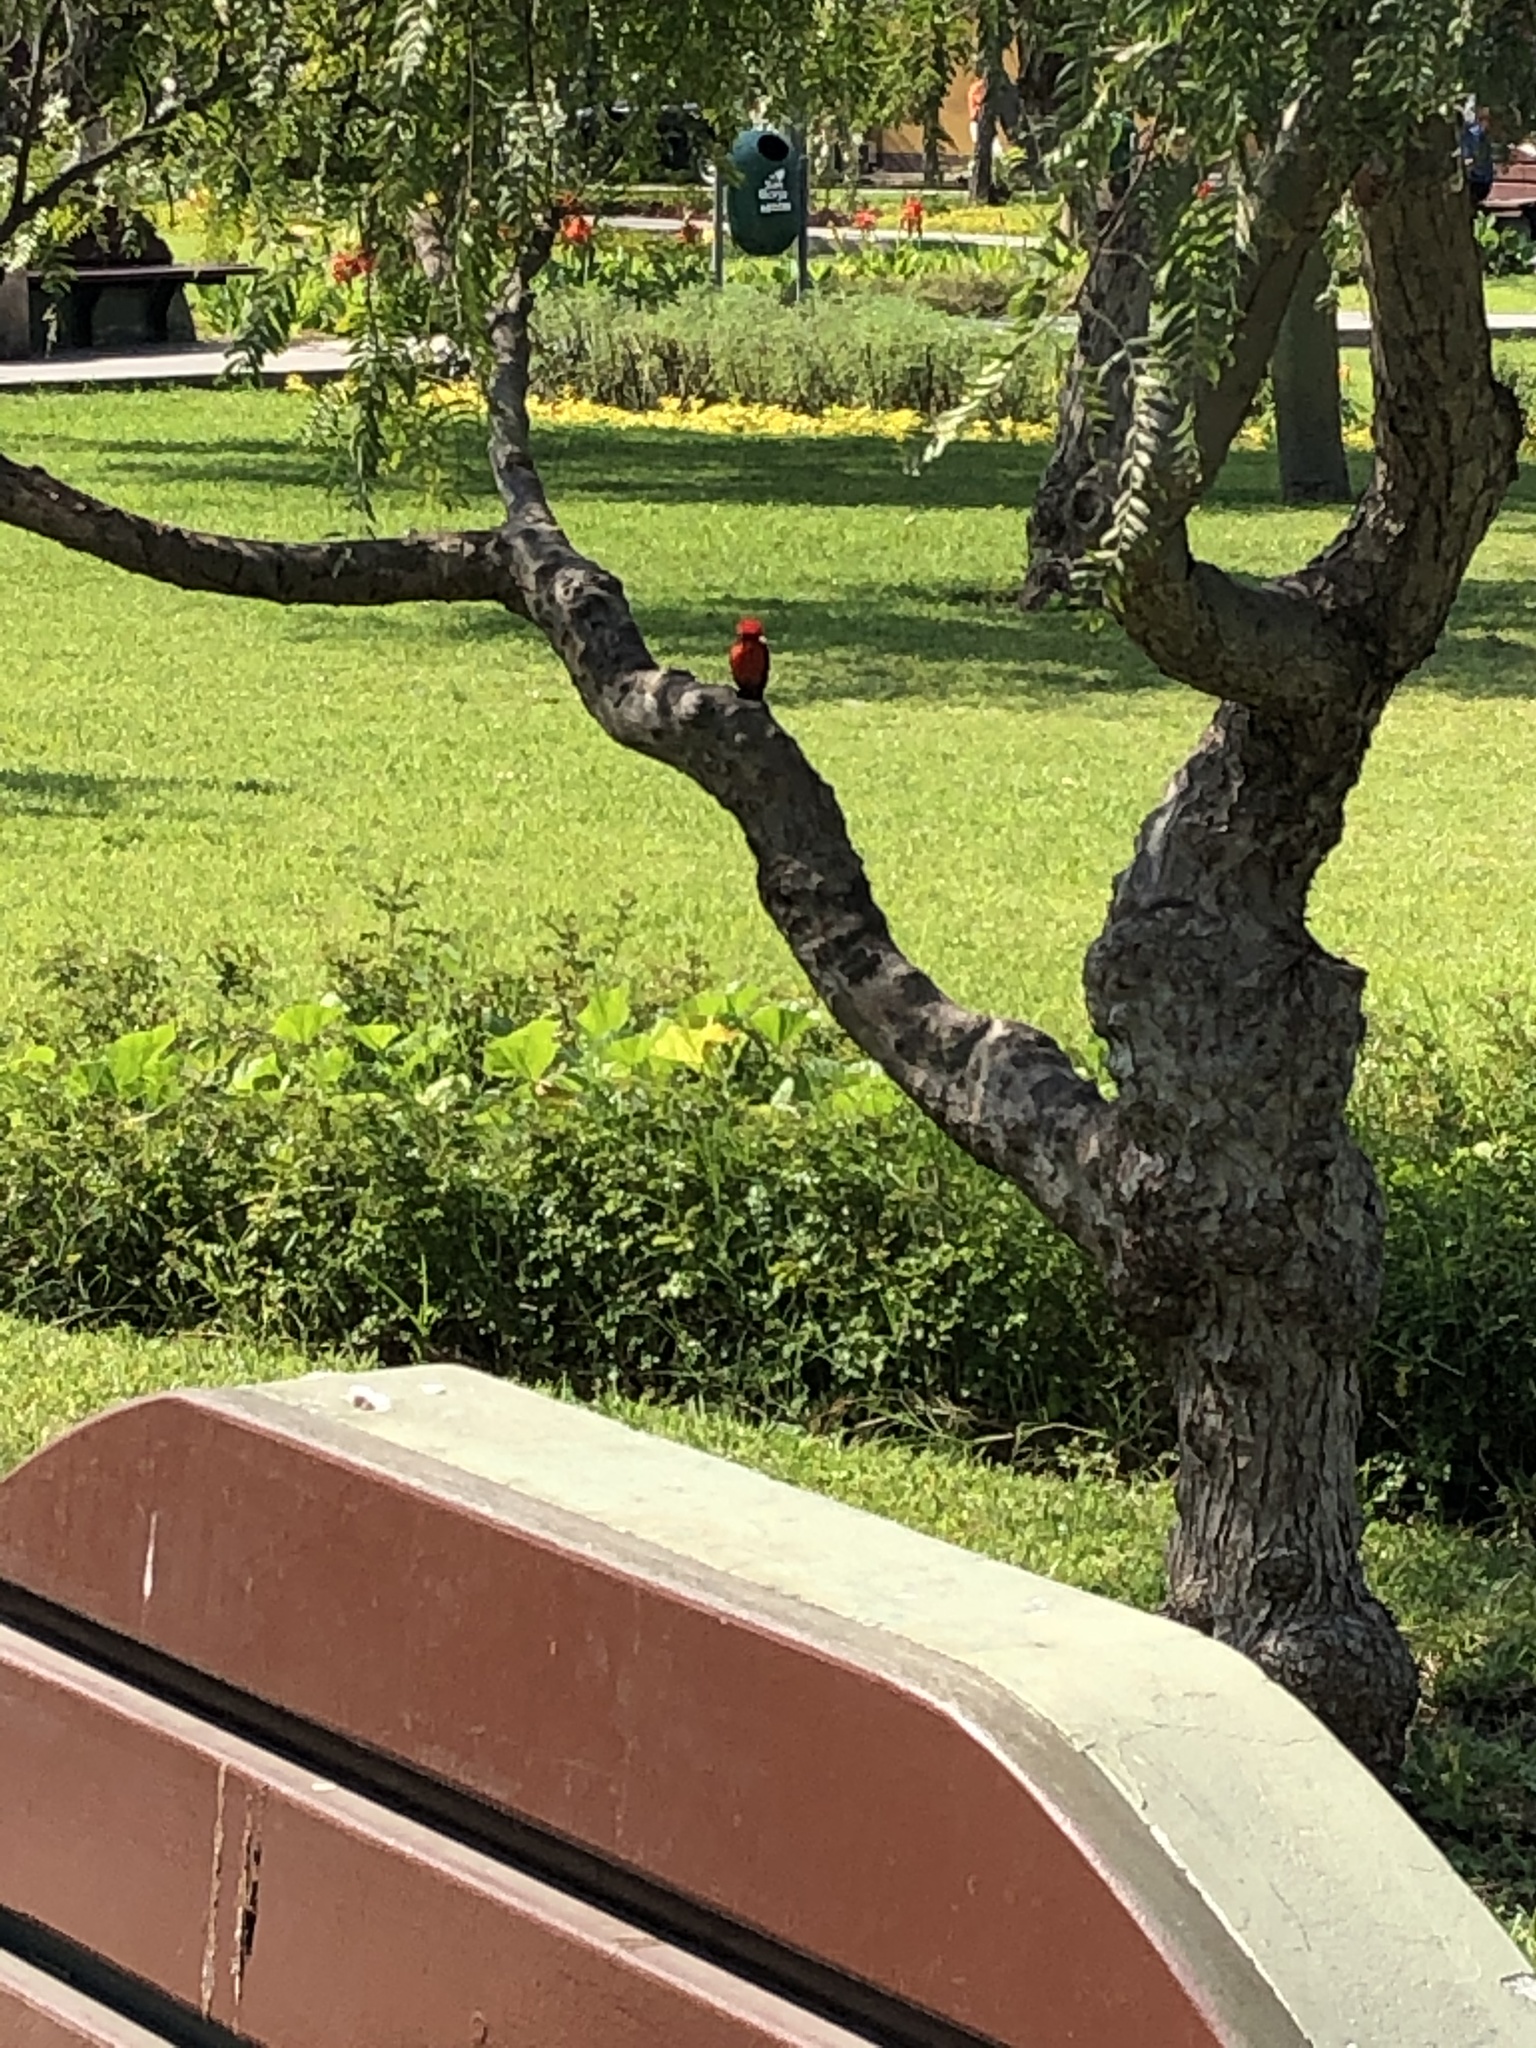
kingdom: Animalia
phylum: Chordata
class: Aves
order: Passeriformes
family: Tyrannidae
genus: Pyrocephalus
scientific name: Pyrocephalus rubinus
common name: Vermilion flycatcher
